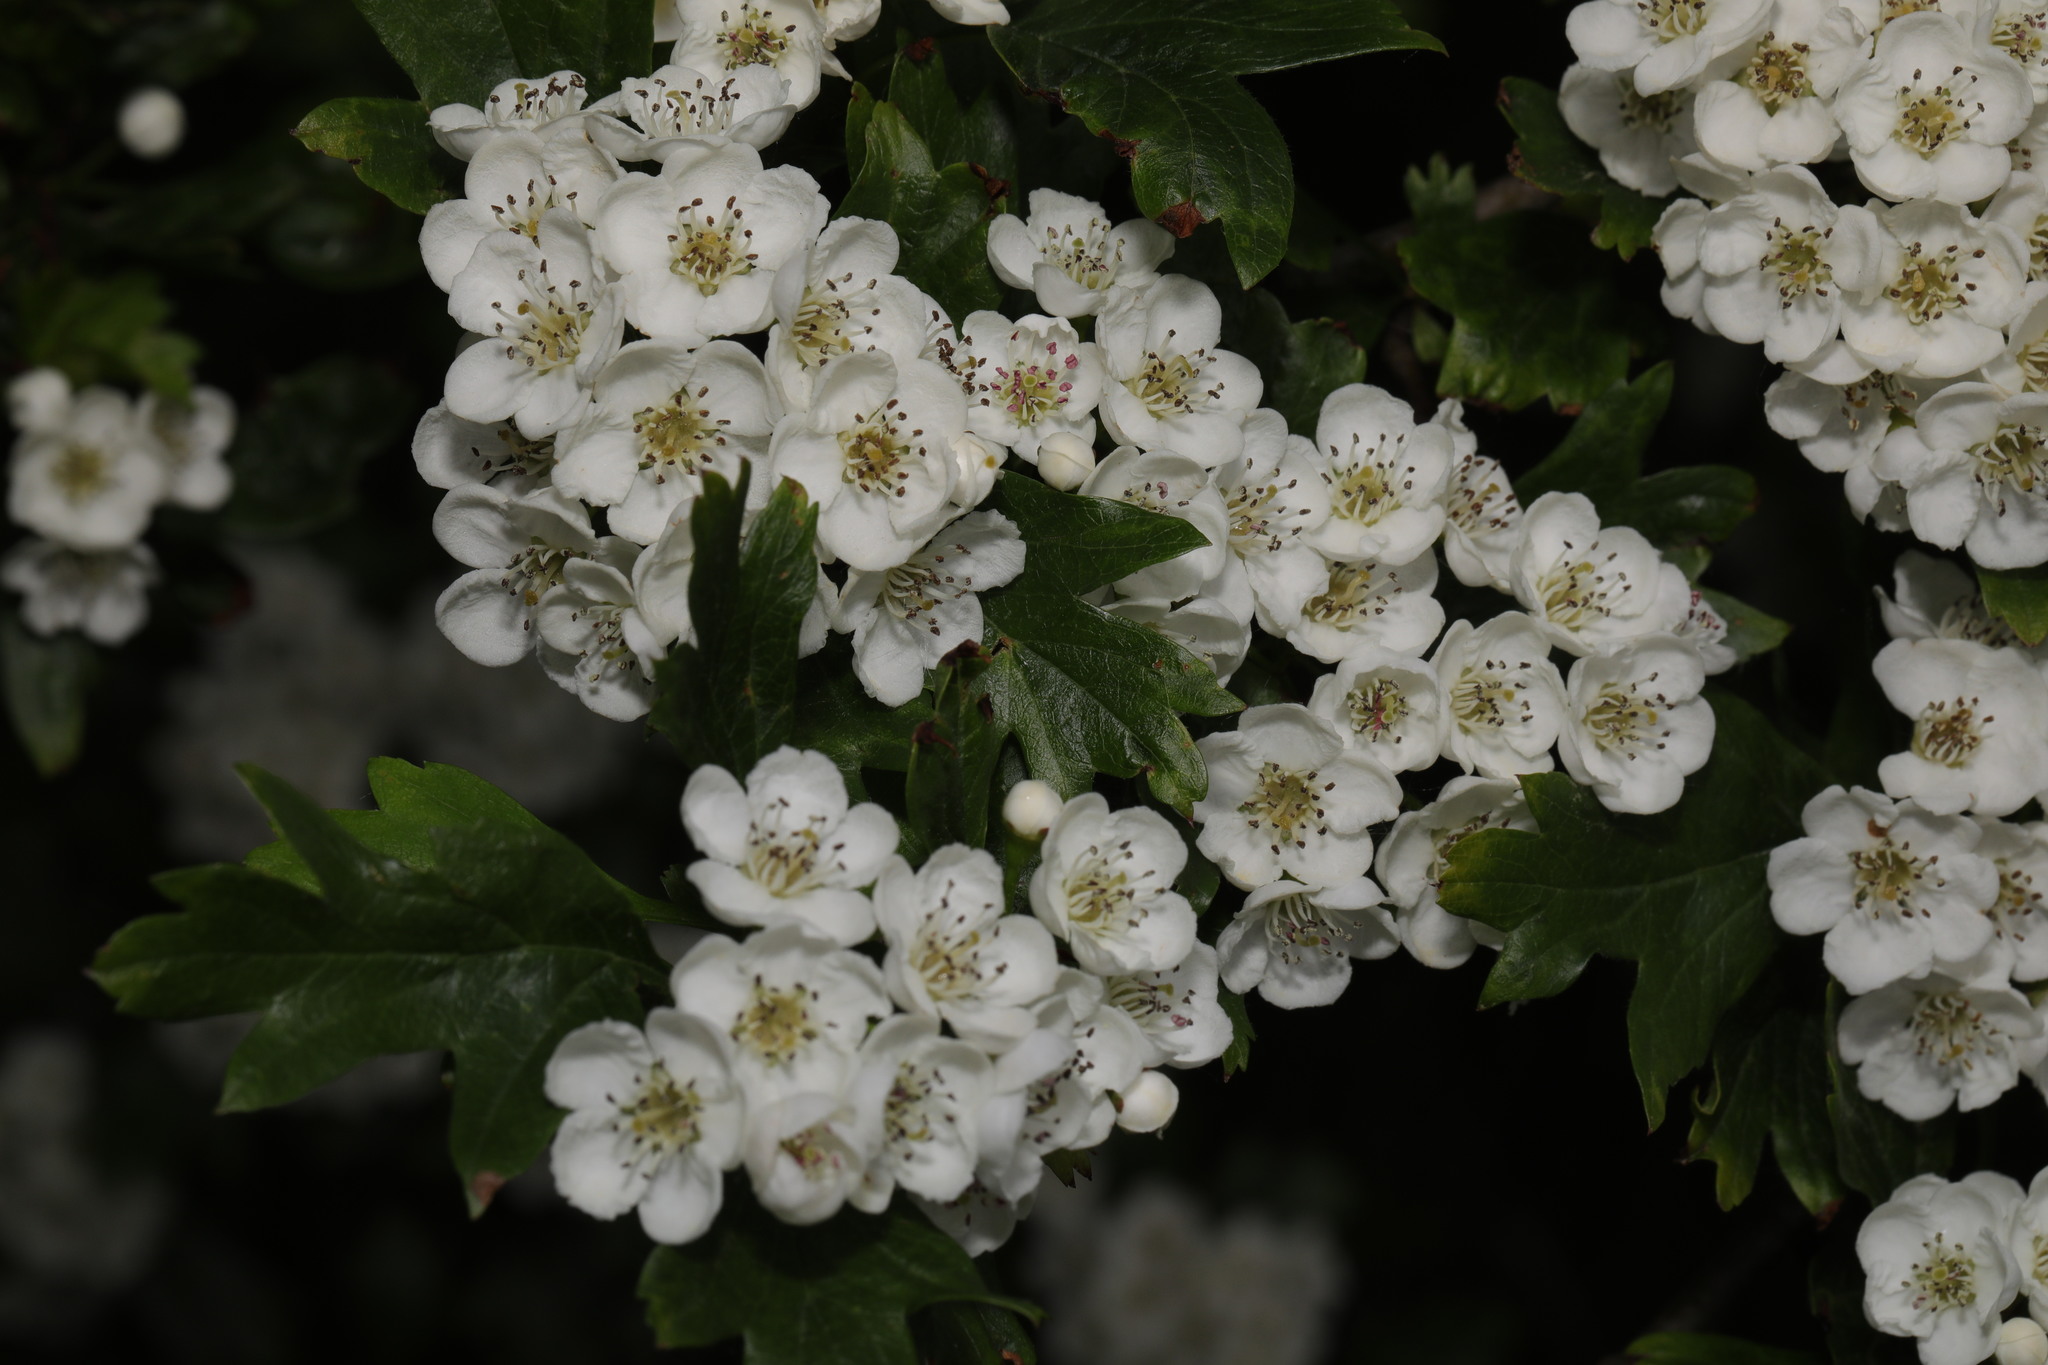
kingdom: Plantae
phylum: Tracheophyta
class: Magnoliopsida
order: Rosales
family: Rosaceae
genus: Crataegus
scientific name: Crataegus monogyna
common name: Hawthorn
